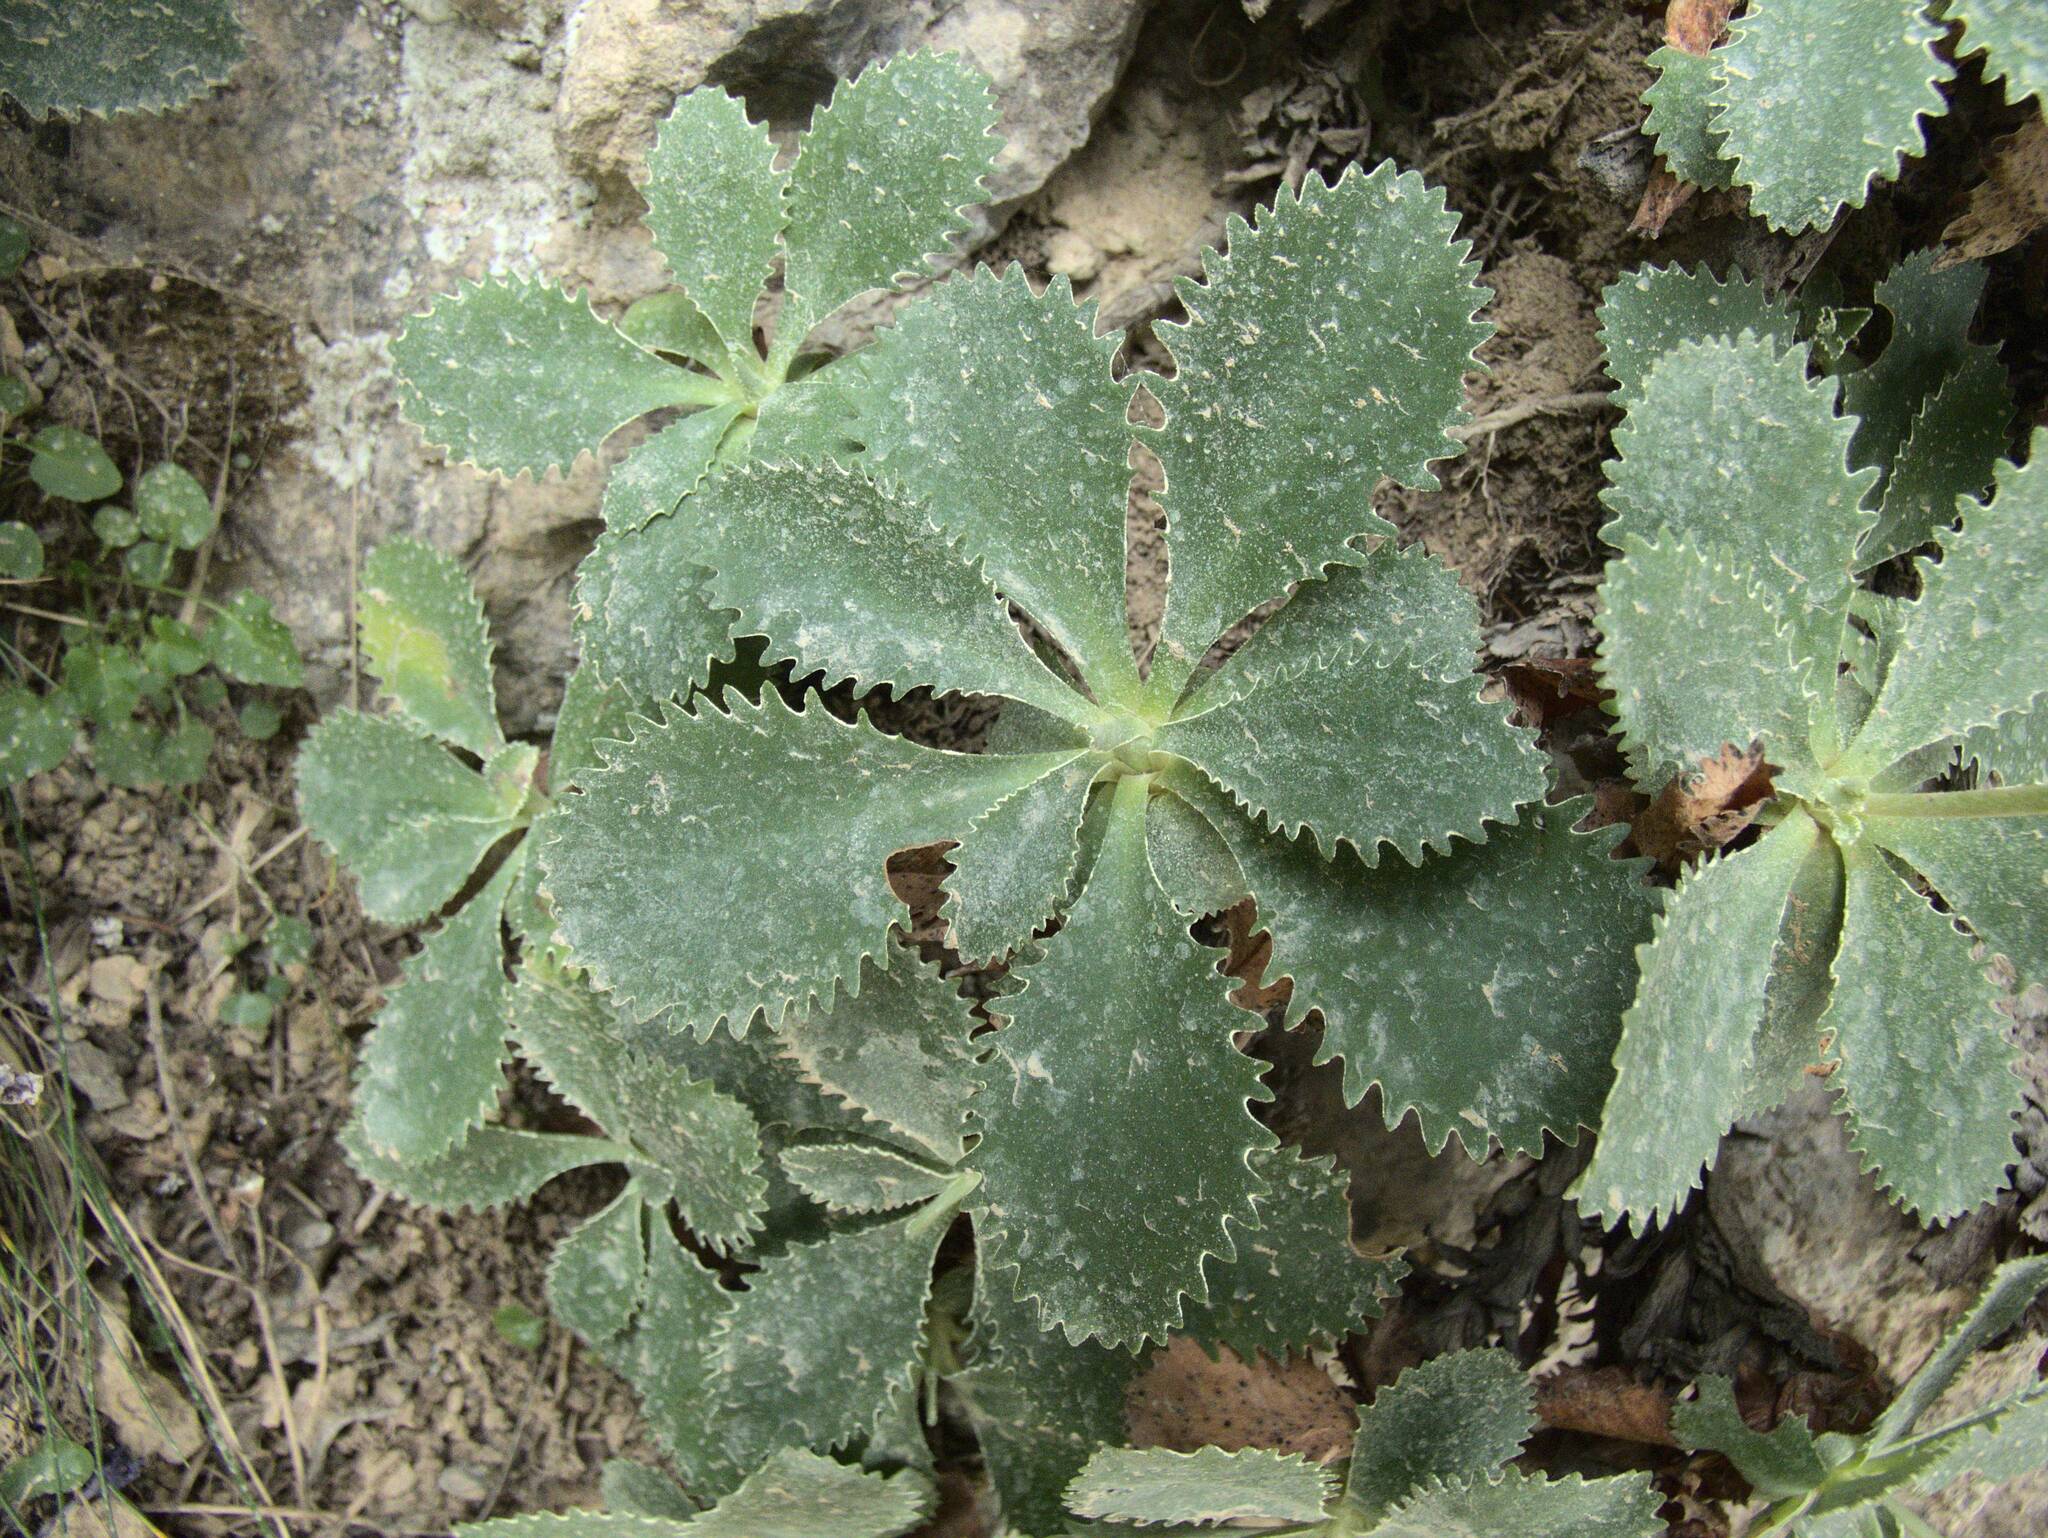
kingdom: Plantae
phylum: Tracheophyta
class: Magnoliopsida
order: Ericales
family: Primulaceae
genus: Primula
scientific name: Primula marginata
